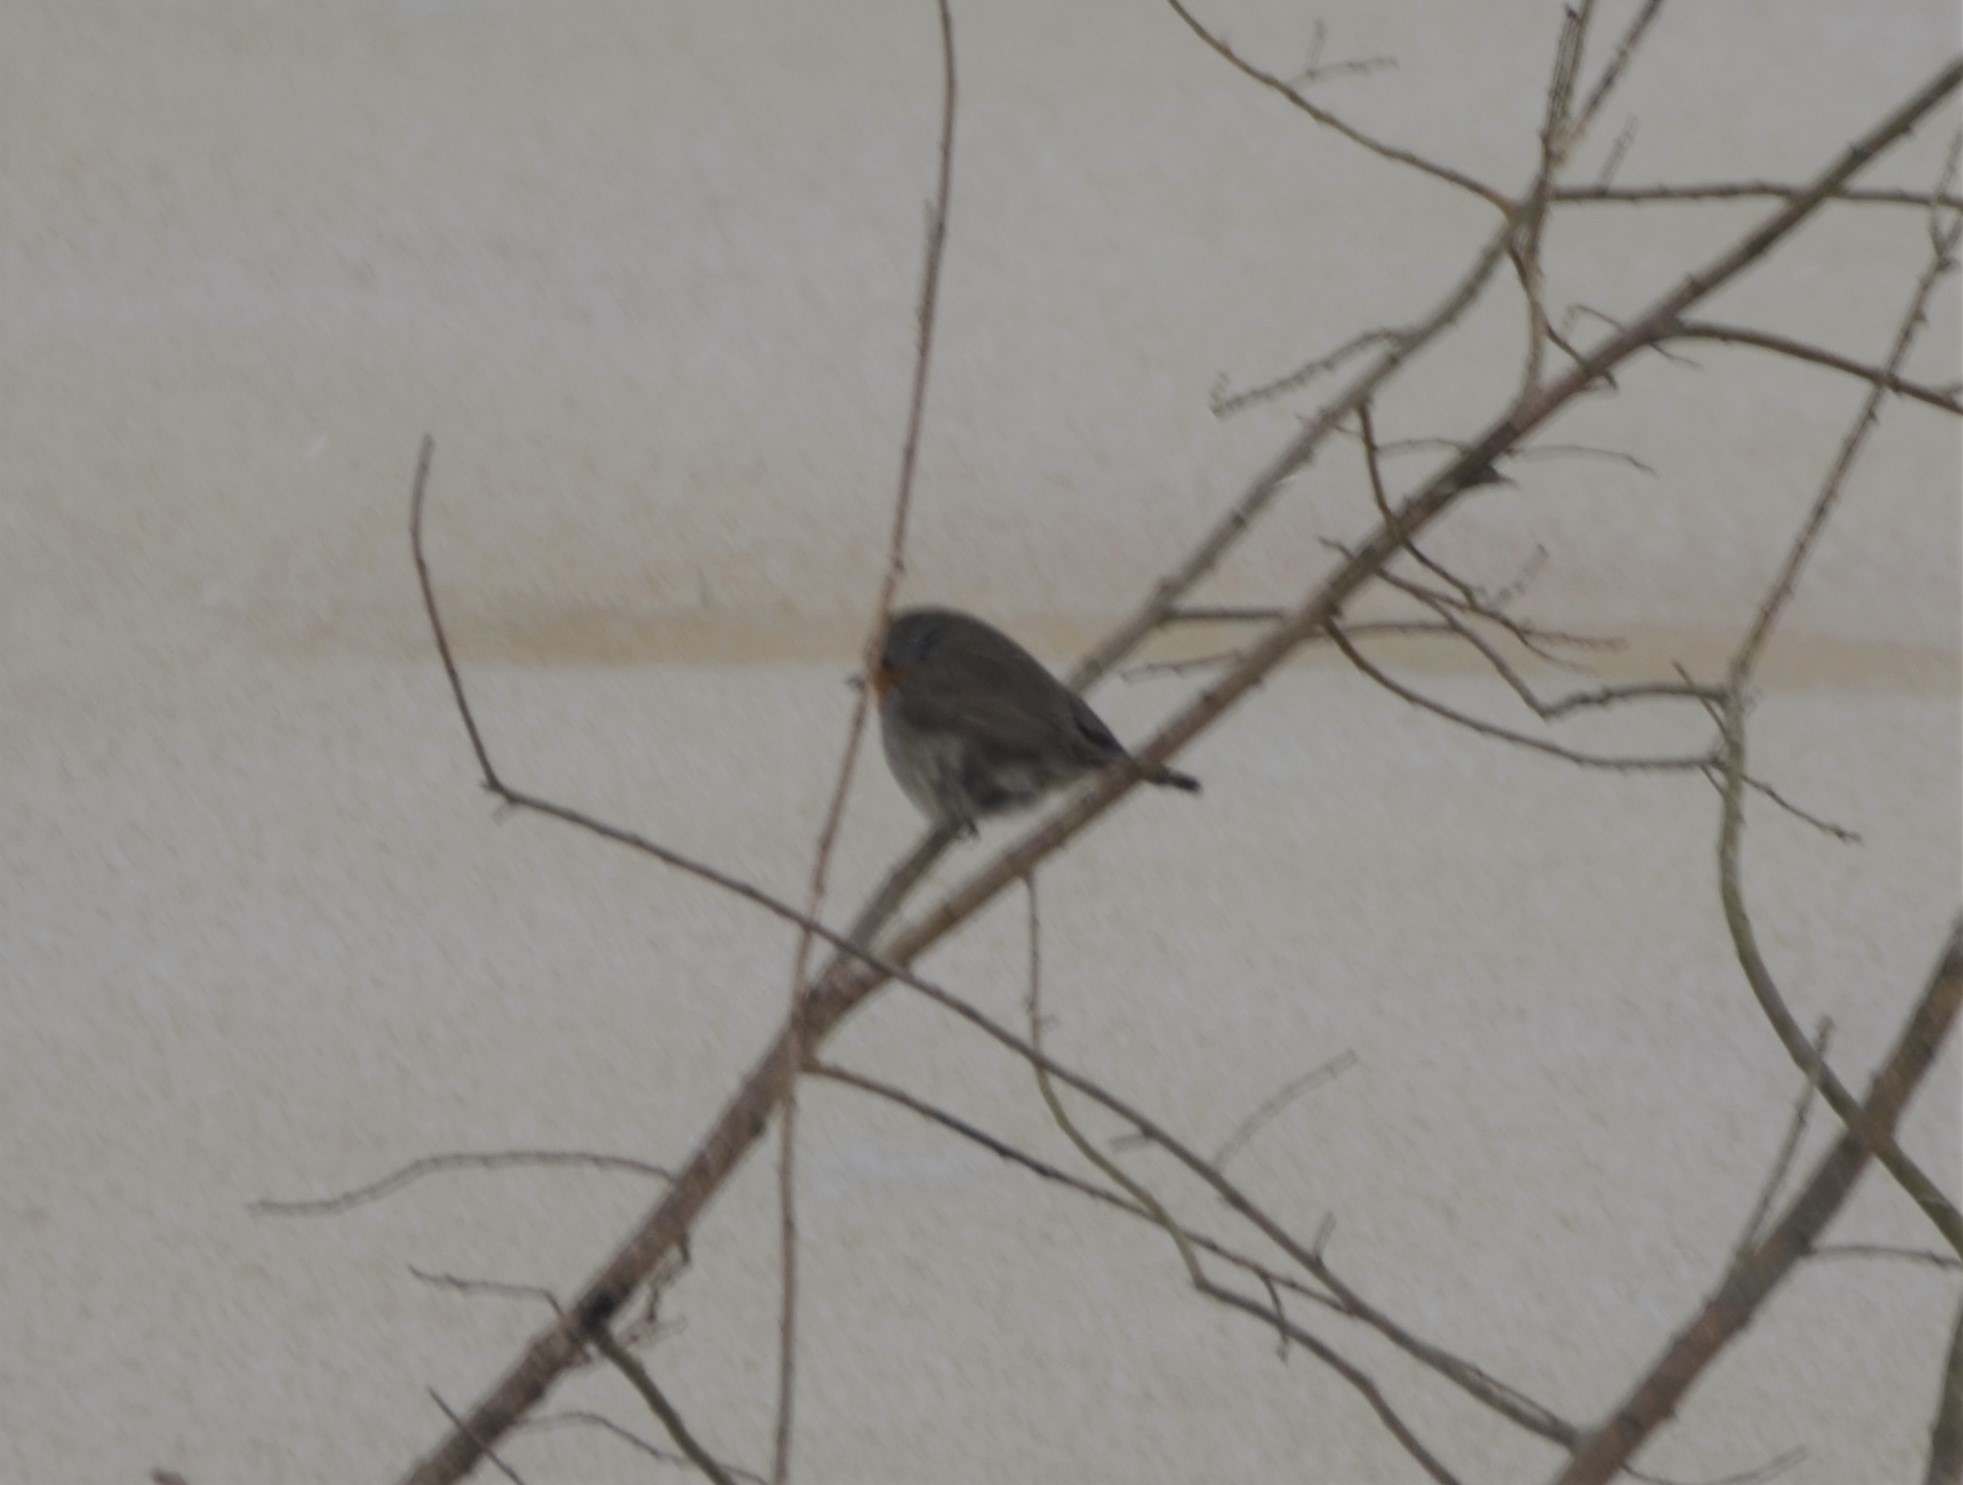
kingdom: Animalia
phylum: Chordata
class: Aves
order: Passeriformes
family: Muscicapidae
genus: Erithacus
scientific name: Erithacus rubecula
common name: European robin
